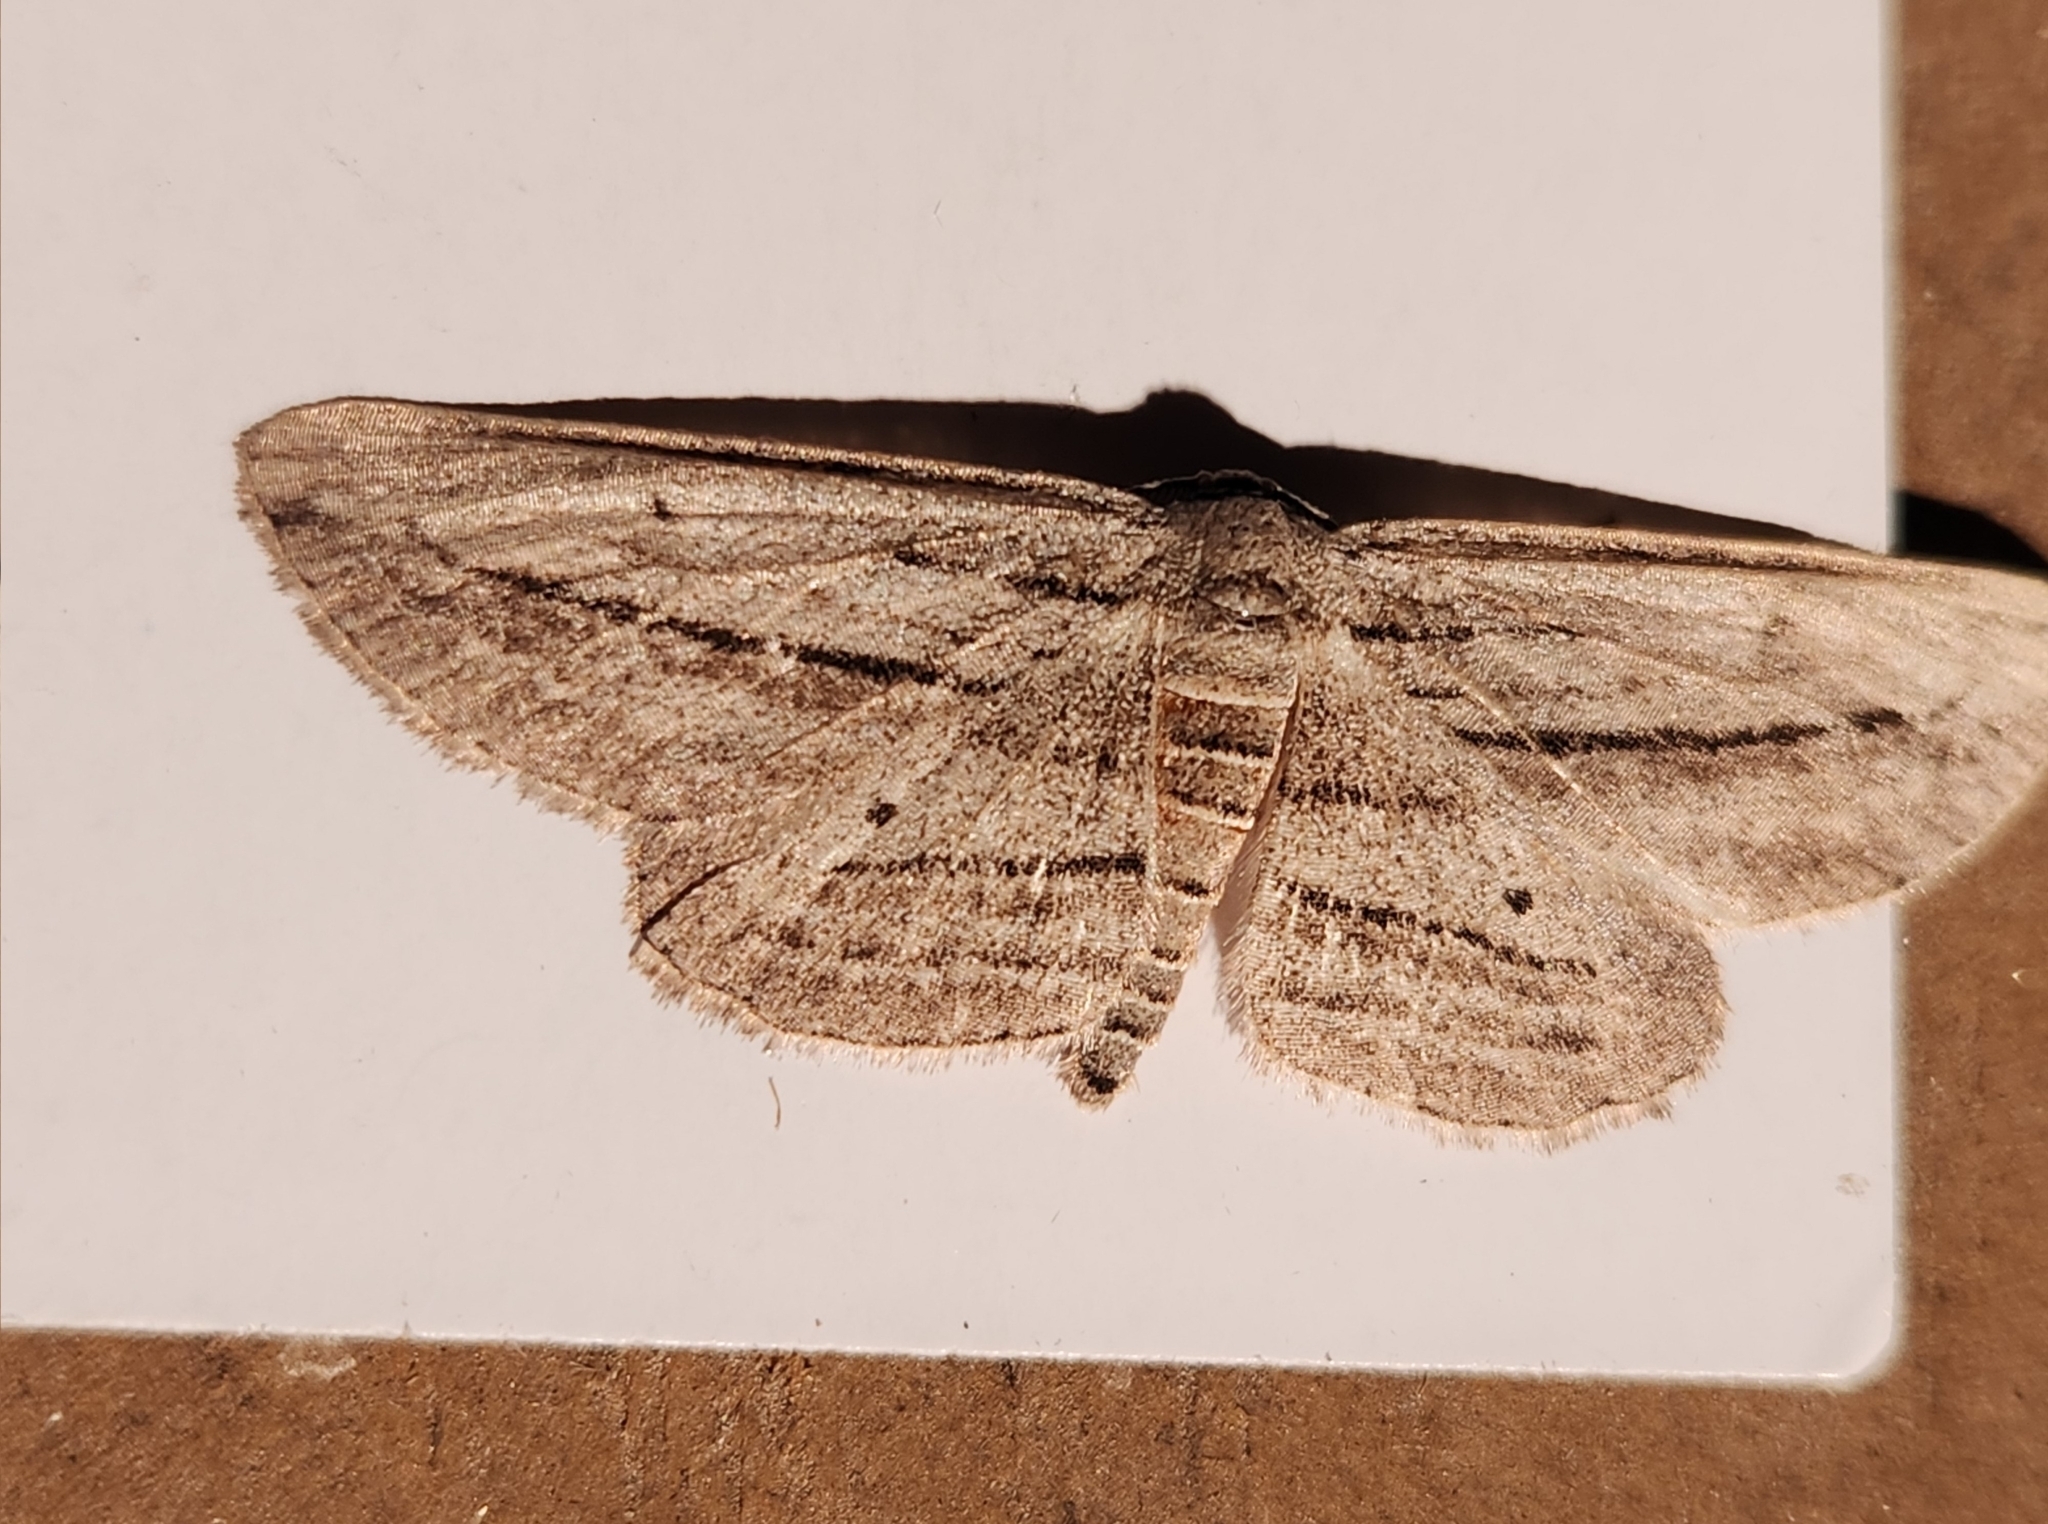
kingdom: Animalia
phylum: Arthropoda
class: Insecta
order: Lepidoptera
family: Geometridae
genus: Glena
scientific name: Glena quinquelinearia
